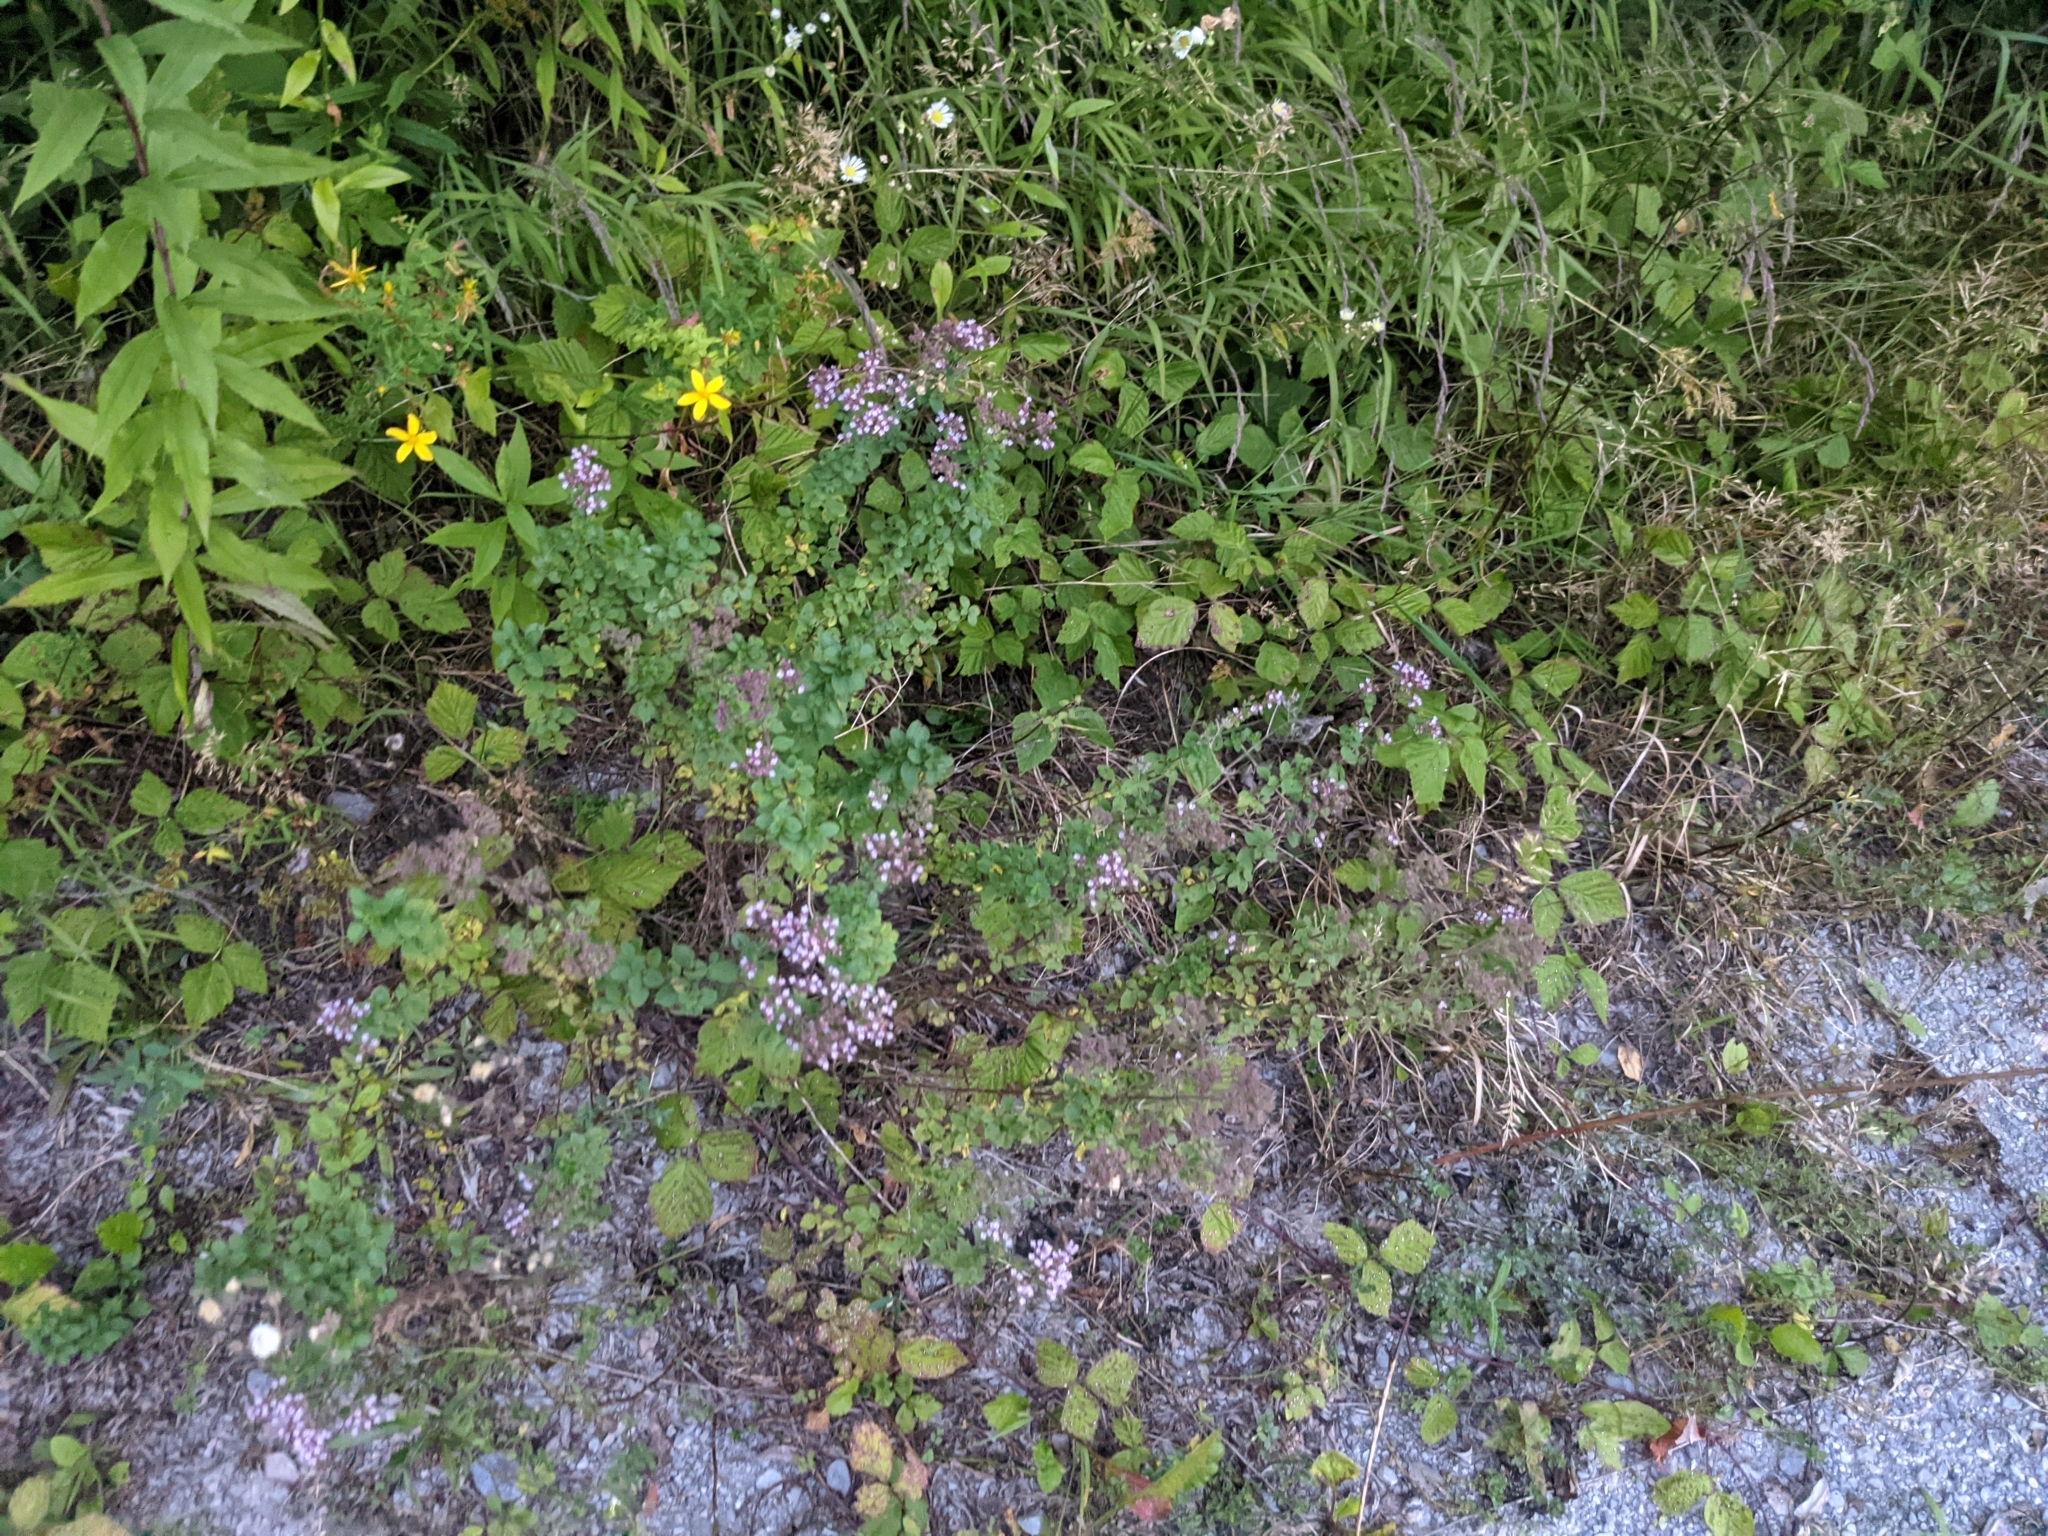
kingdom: Plantae
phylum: Tracheophyta
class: Magnoliopsida
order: Lamiales
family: Lamiaceae
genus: Origanum
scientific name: Origanum vulgare
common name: Wild marjoram
